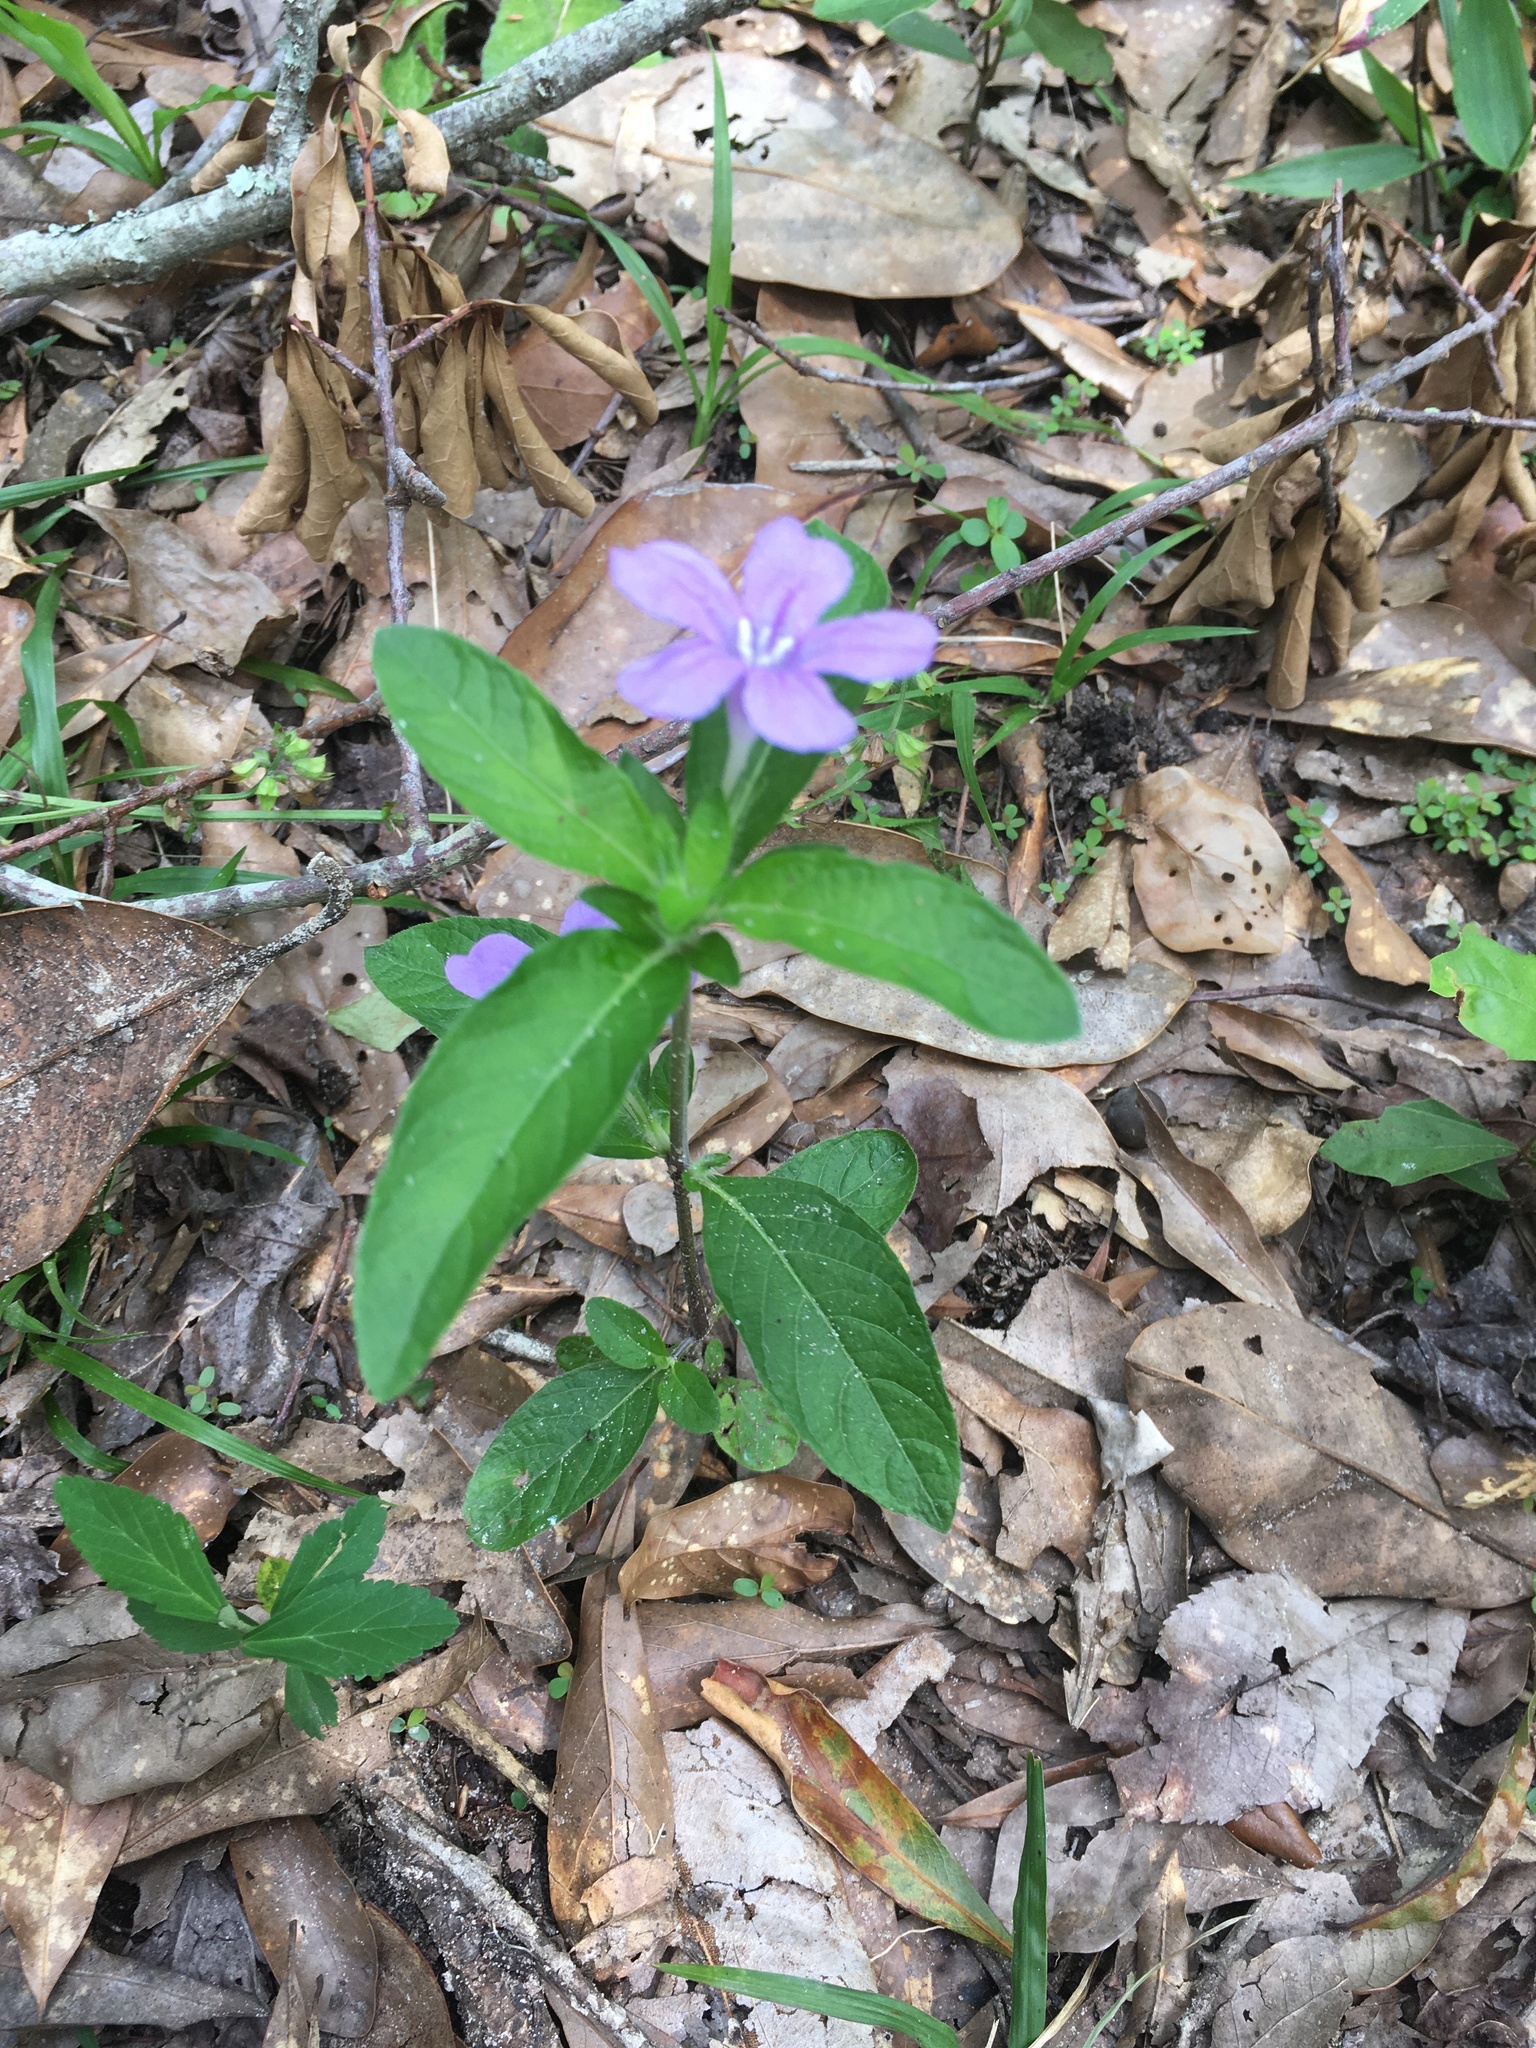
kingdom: Plantae
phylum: Tracheophyta
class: Magnoliopsida
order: Lamiales
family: Acanthaceae
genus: Ruellia
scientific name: Ruellia caroliniensis
